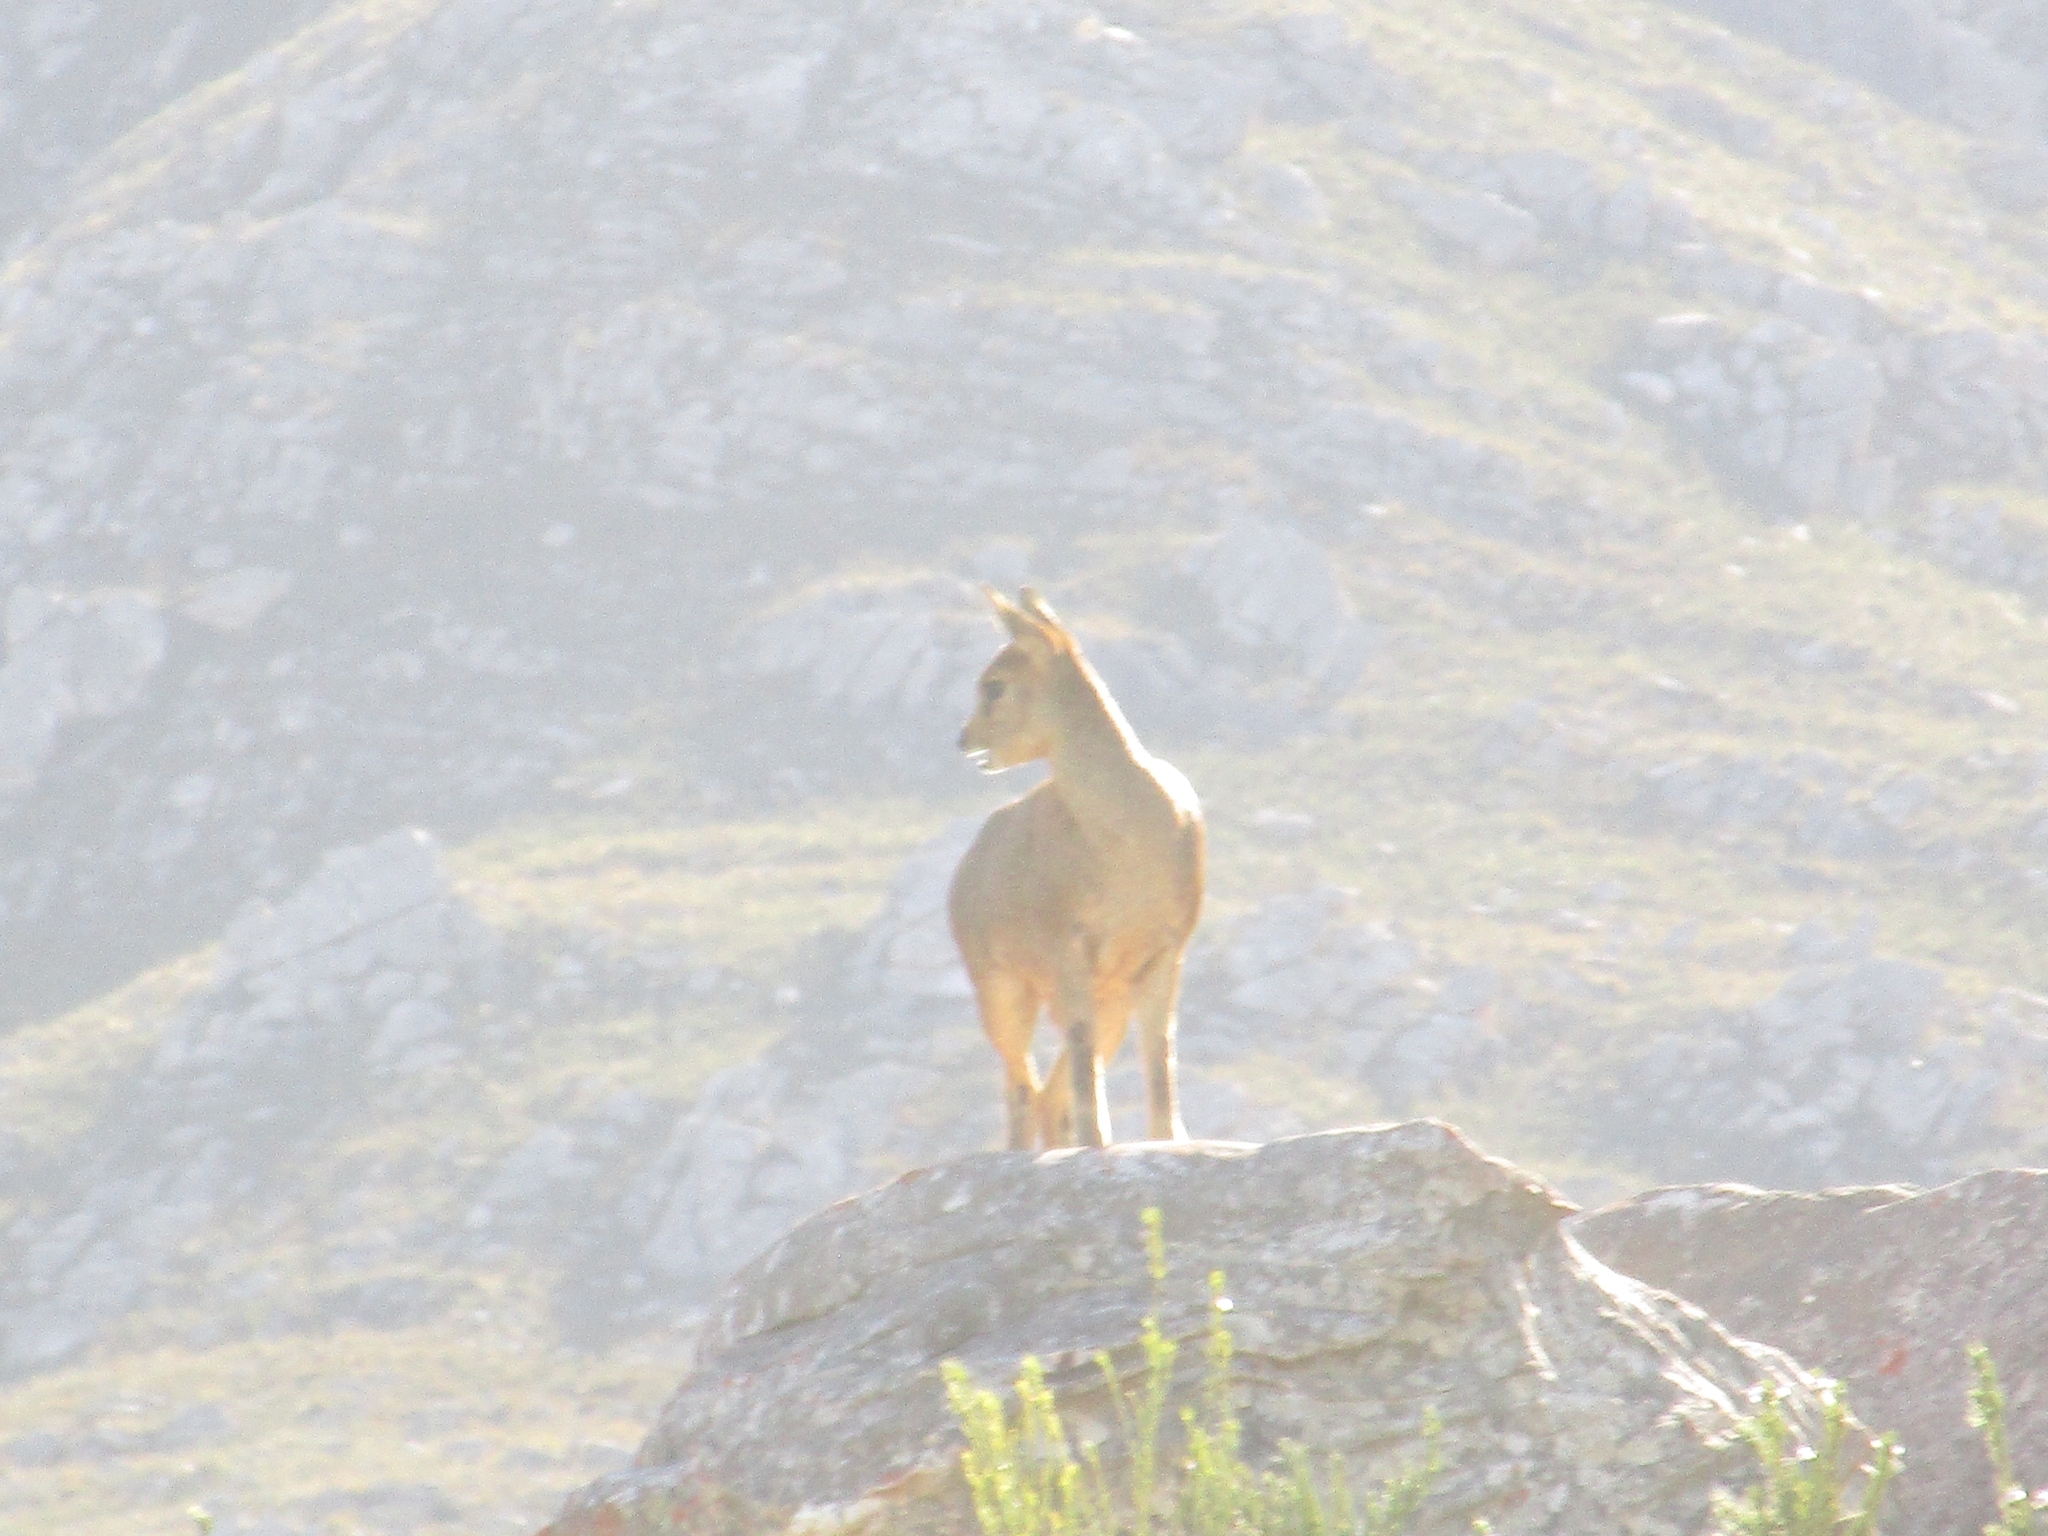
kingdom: Animalia
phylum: Chordata
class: Mammalia
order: Artiodactyla
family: Bovidae
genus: Oreotragus
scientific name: Oreotragus oreotragus
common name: Klipspringer
